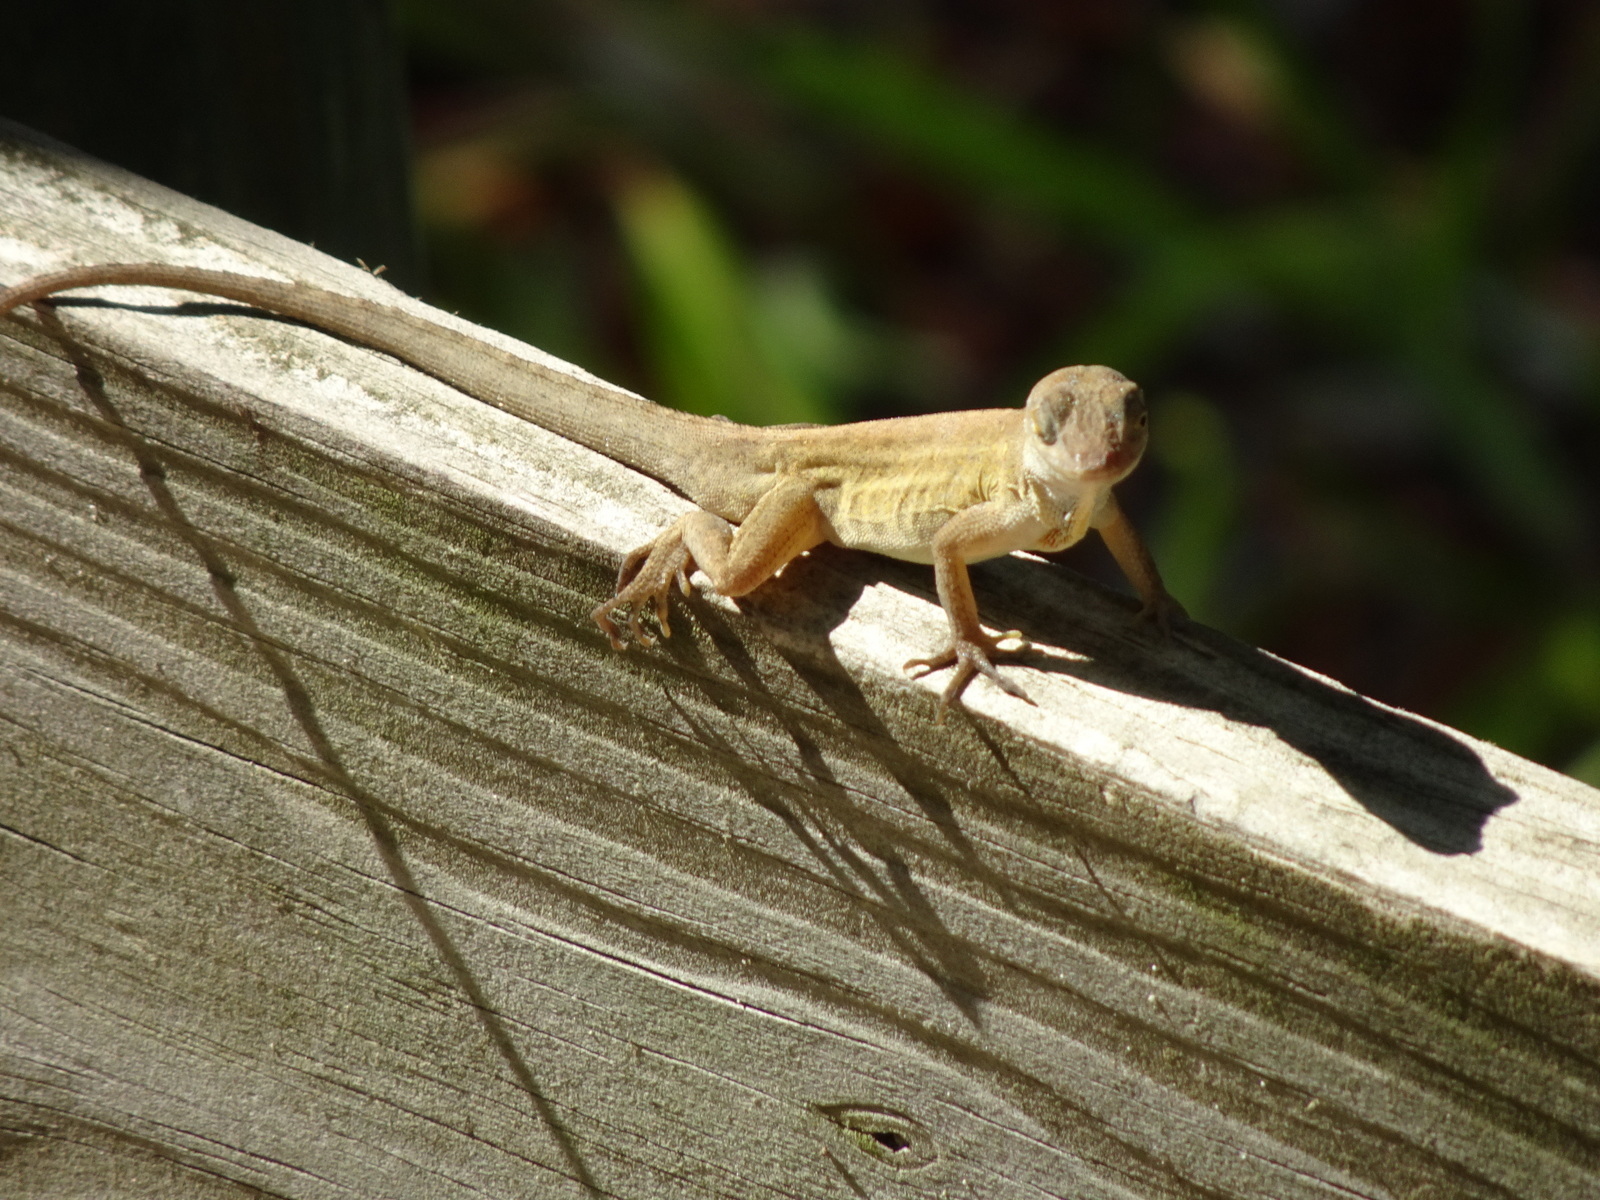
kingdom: Animalia
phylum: Chordata
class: Squamata
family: Dactyloidae
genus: Anolis
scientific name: Anolis sagrei
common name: Brown anole
